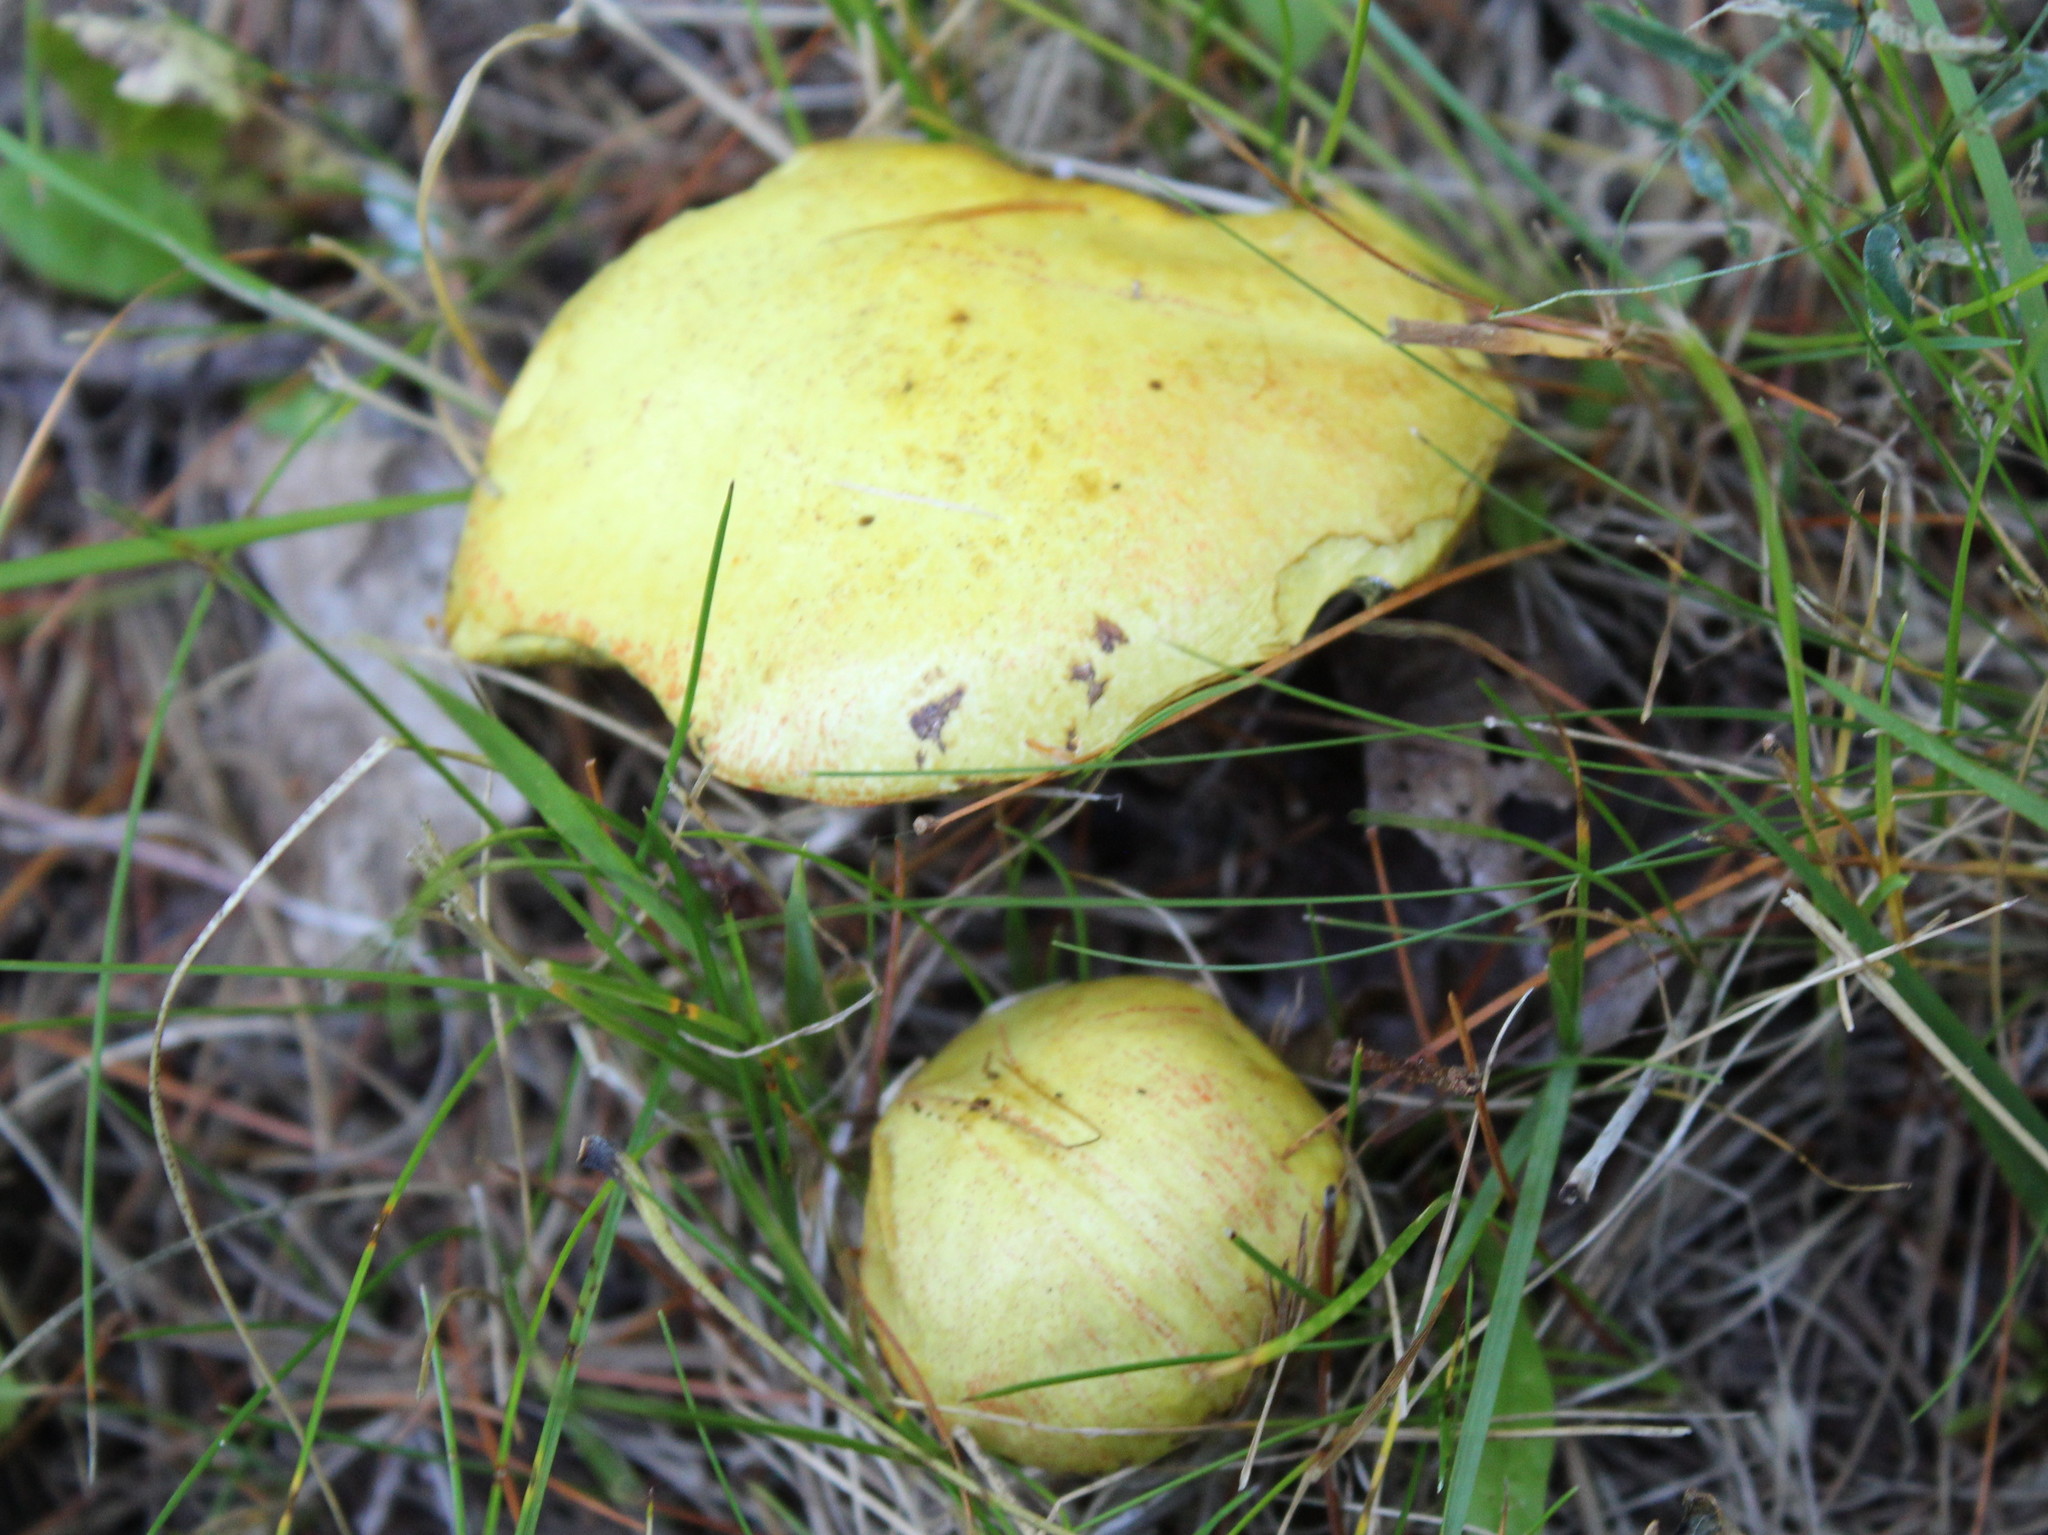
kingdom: Fungi
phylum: Basidiomycota
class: Agaricomycetes
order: Boletales
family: Suillaceae
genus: Suillus
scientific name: Suillus americanus
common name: Chicken fat mushroom
